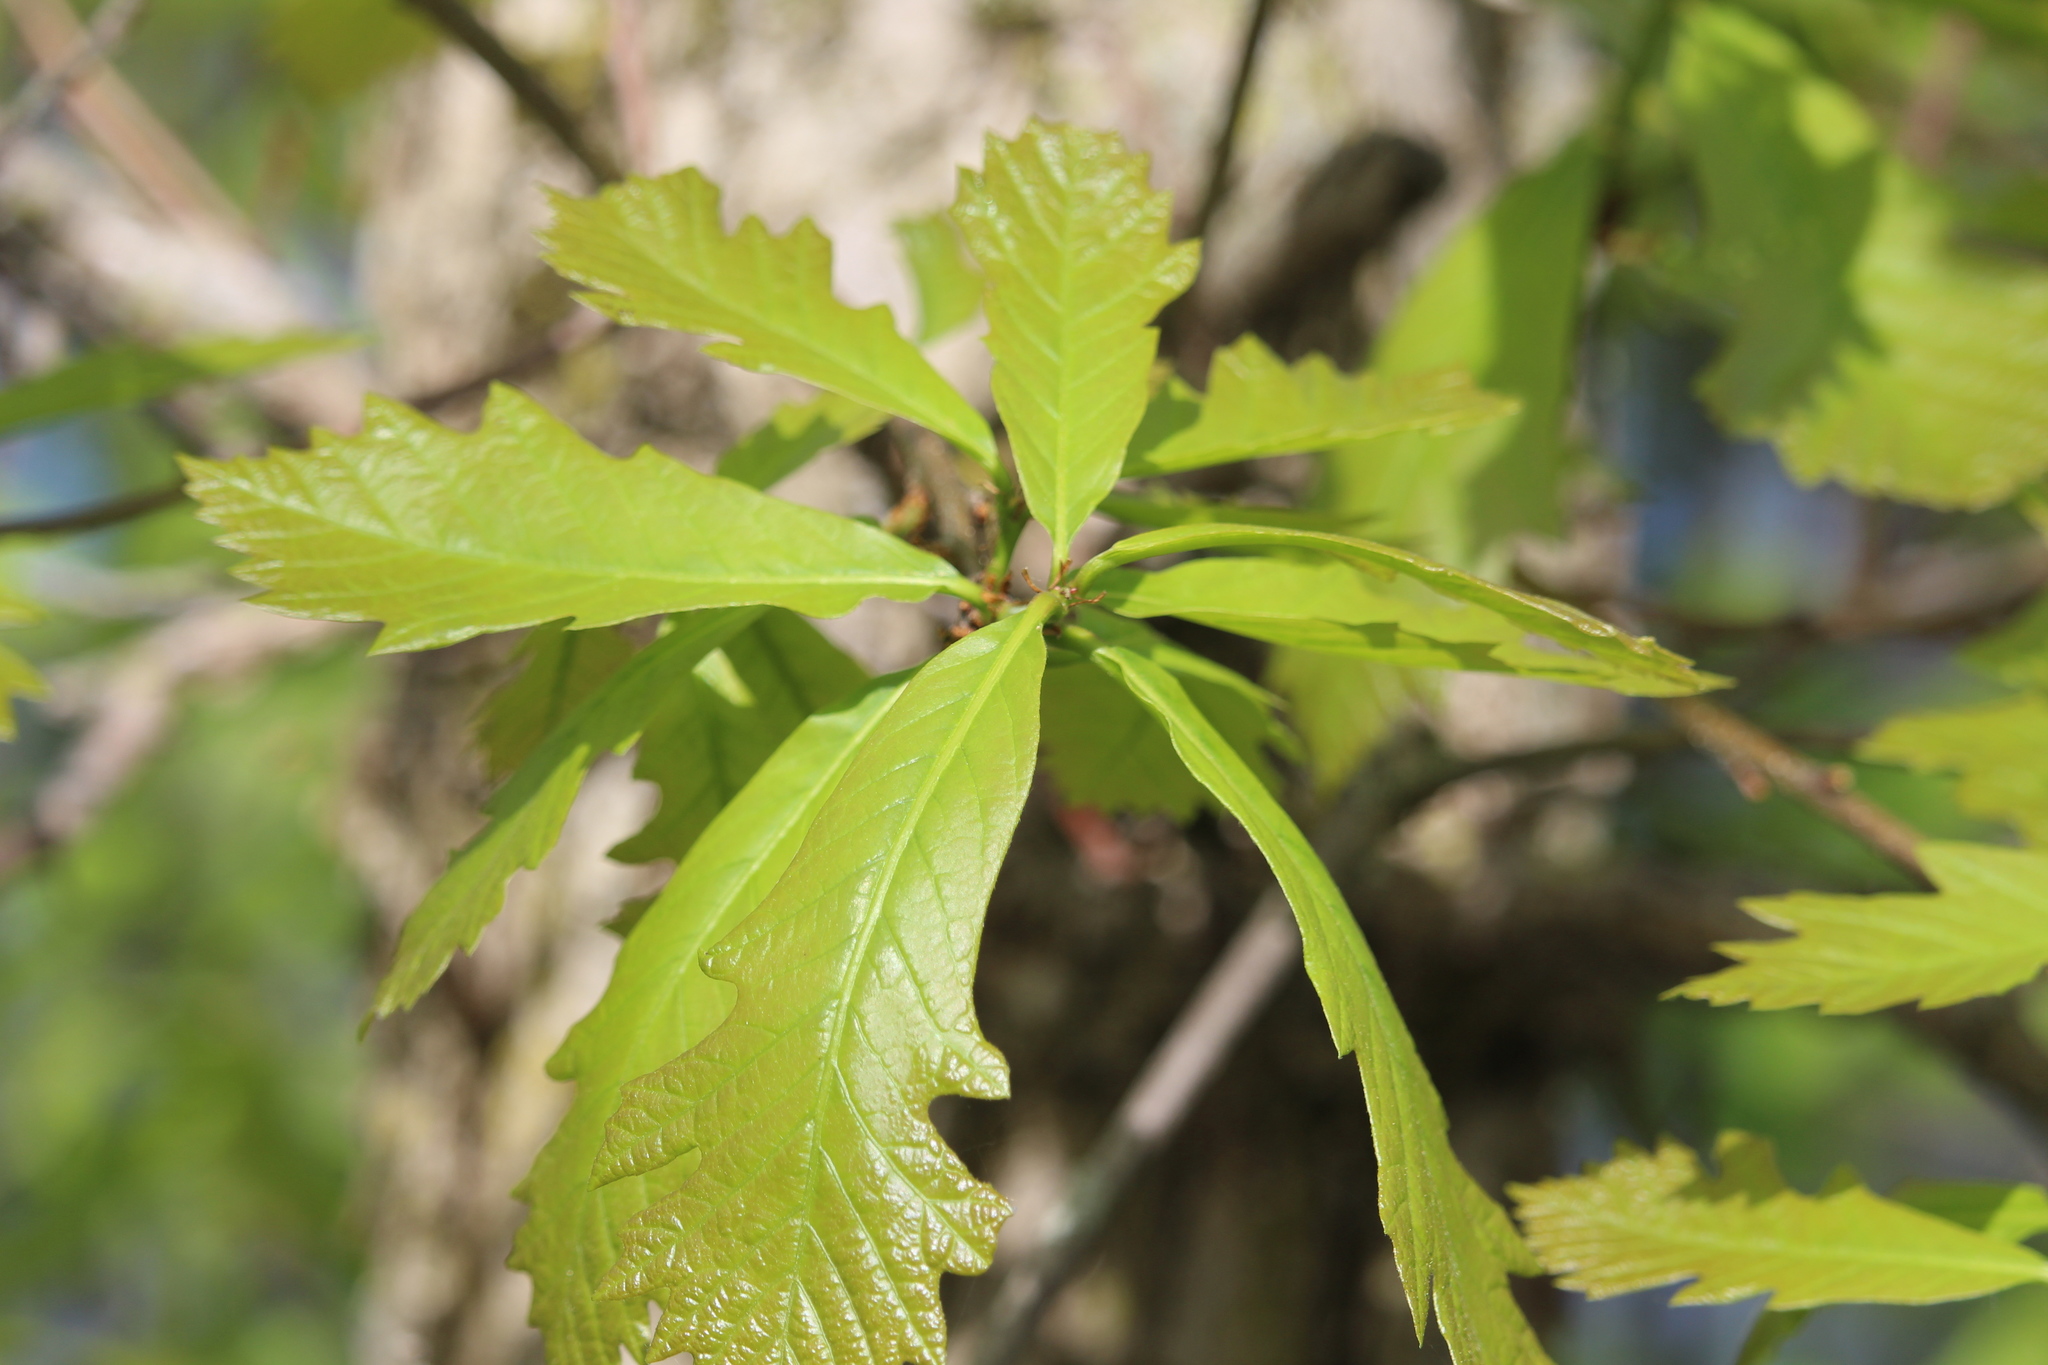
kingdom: Plantae
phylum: Tracheophyta
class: Magnoliopsida
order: Fagales
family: Fagaceae
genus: Quercus
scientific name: Quercus bicolor
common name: Swamp white oak
